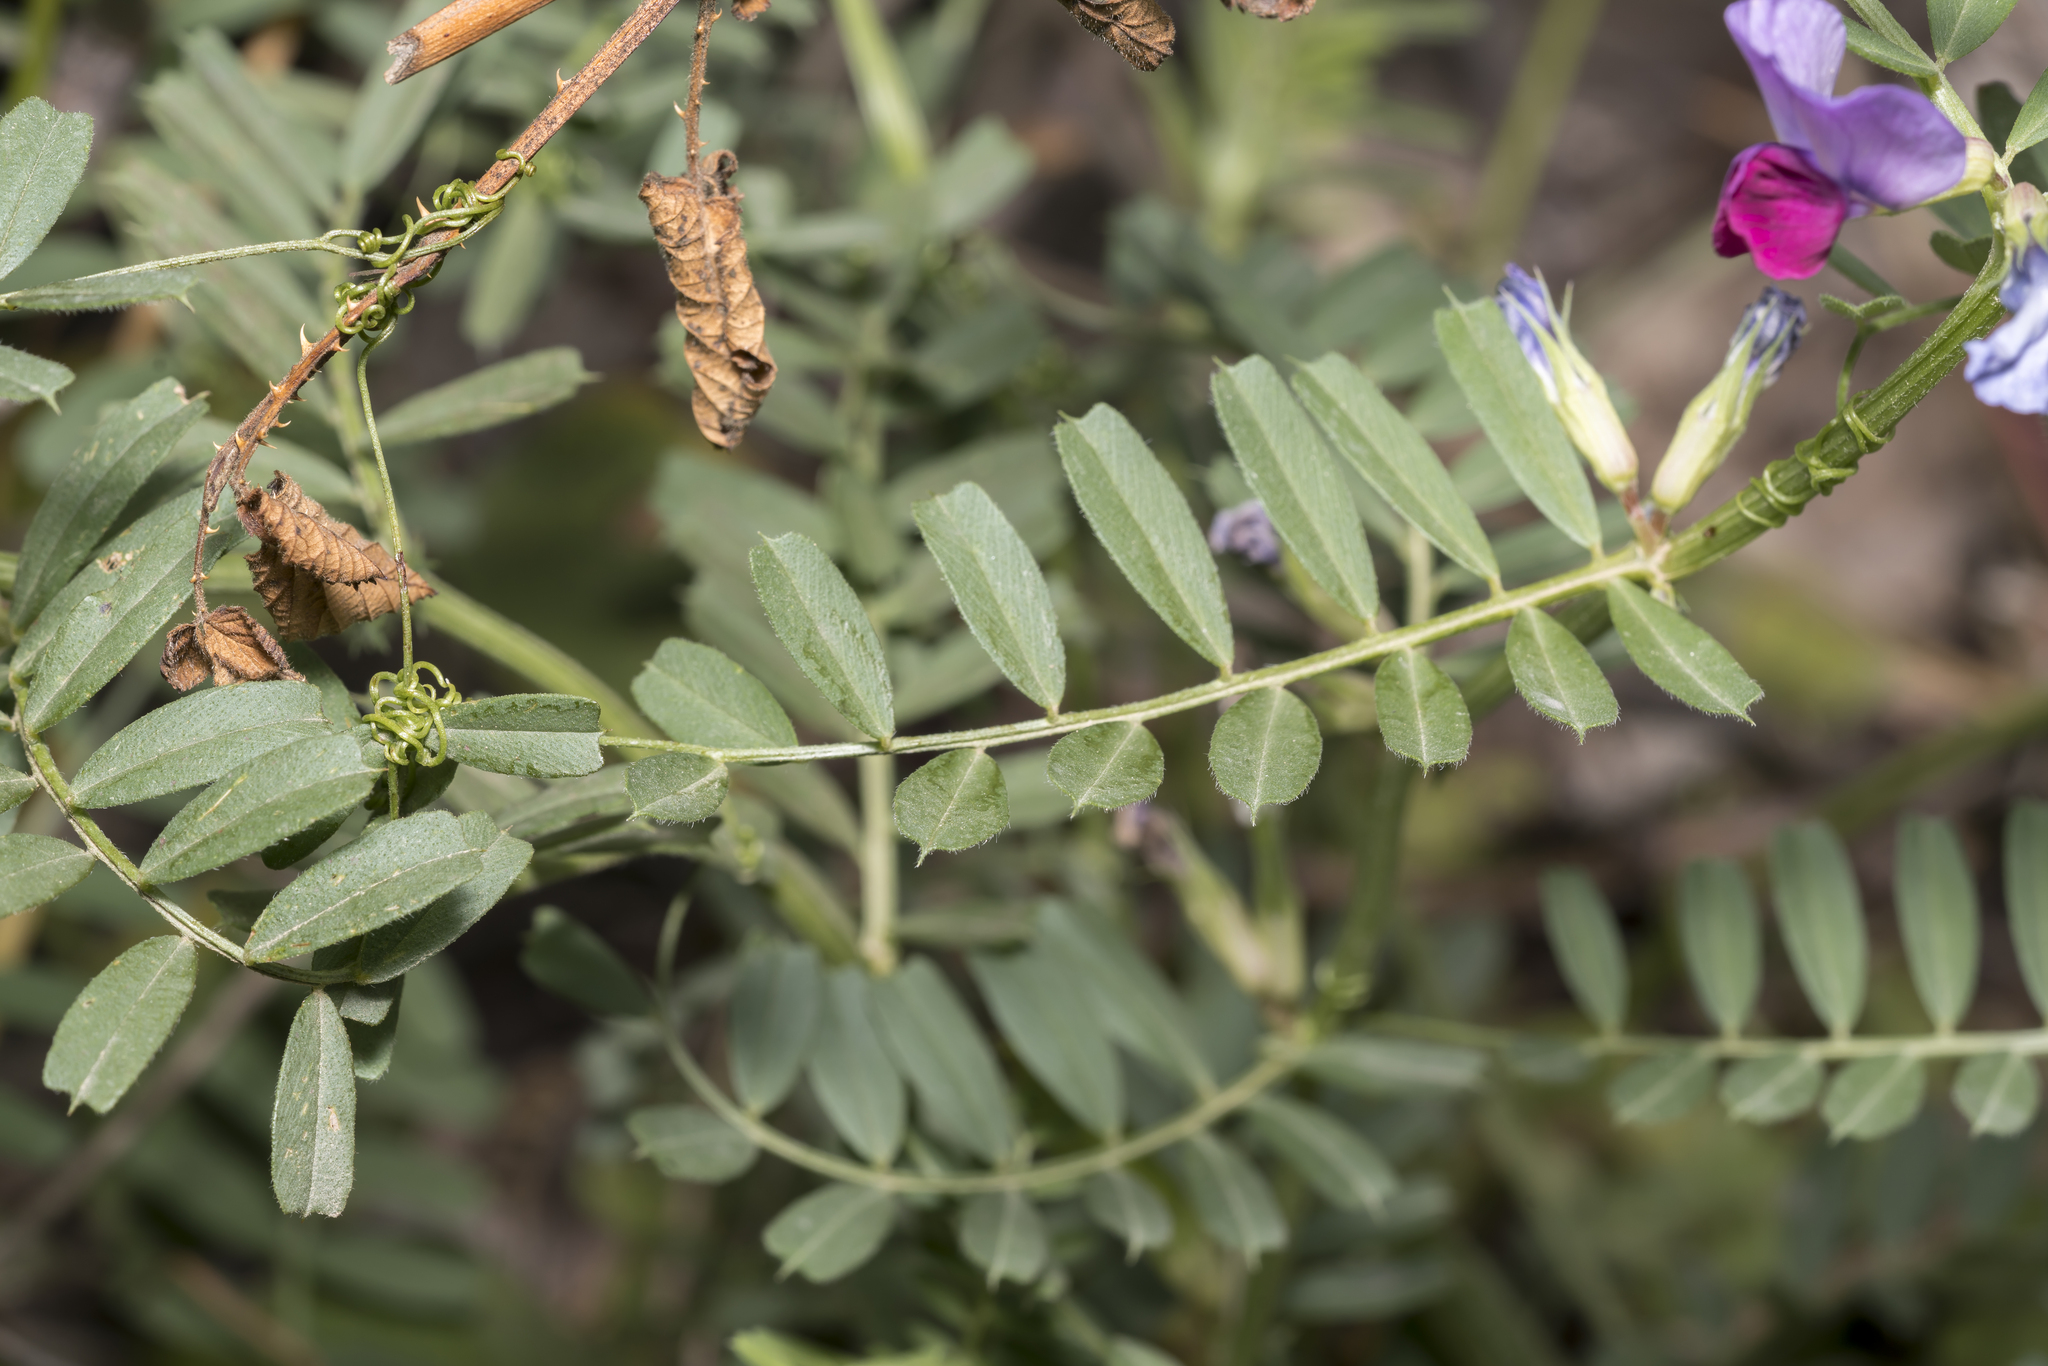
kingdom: Plantae
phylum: Tracheophyta
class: Magnoliopsida
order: Fabales
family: Fabaceae
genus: Vicia
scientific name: Vicia sativa
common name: Garden vetch
